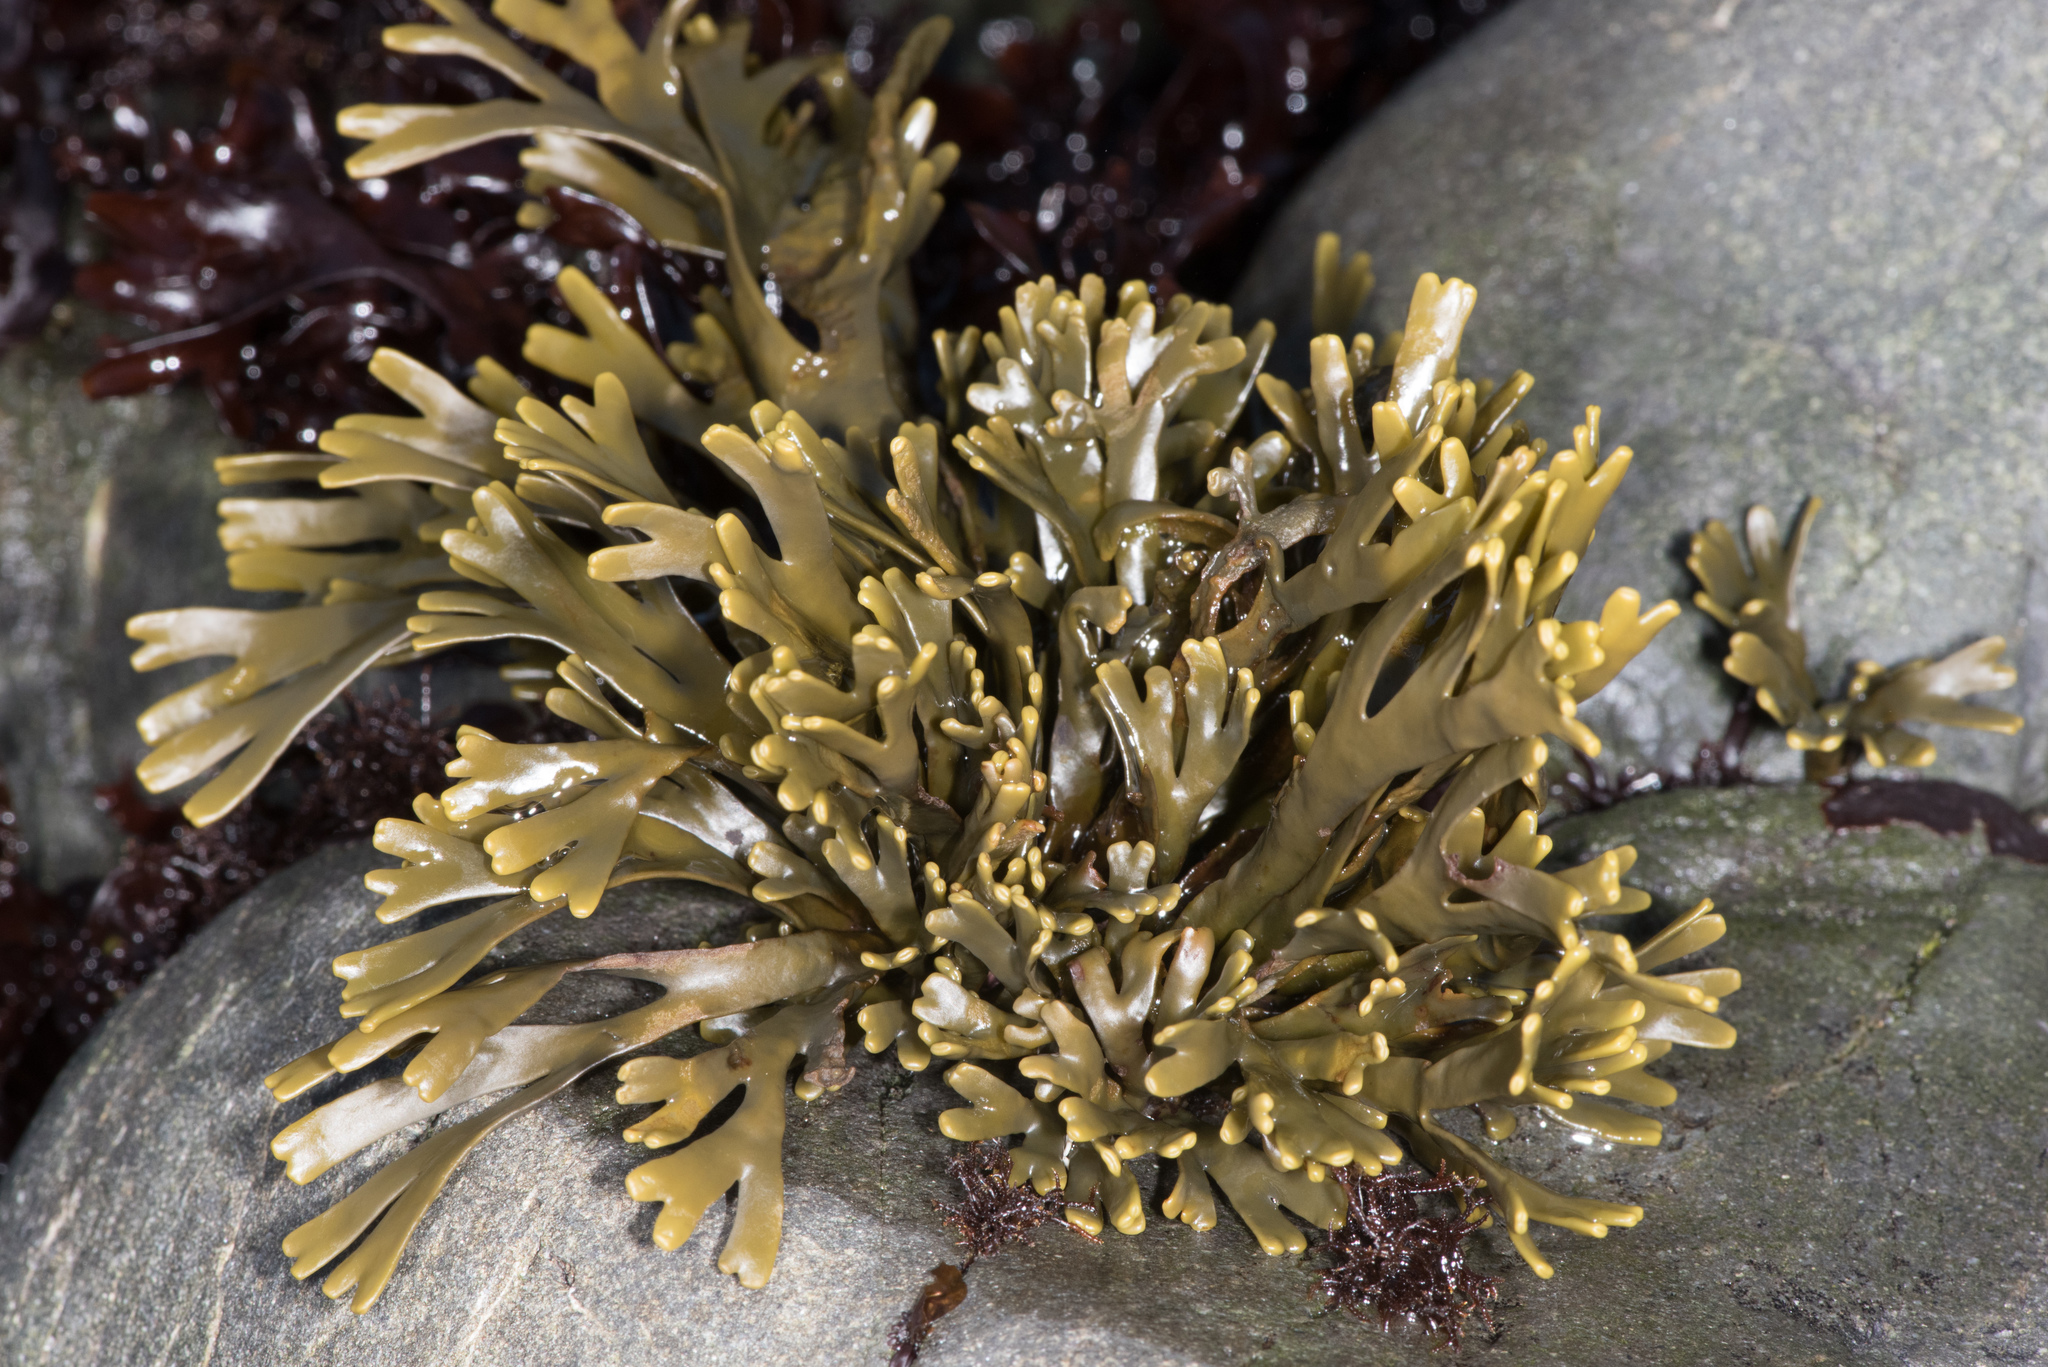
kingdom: Chromista
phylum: Ochrophyta
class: Phaeophyceae
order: Fucales
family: Fucaceae
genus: Pelvetiopsis
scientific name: Pelvetiopsis limitata
